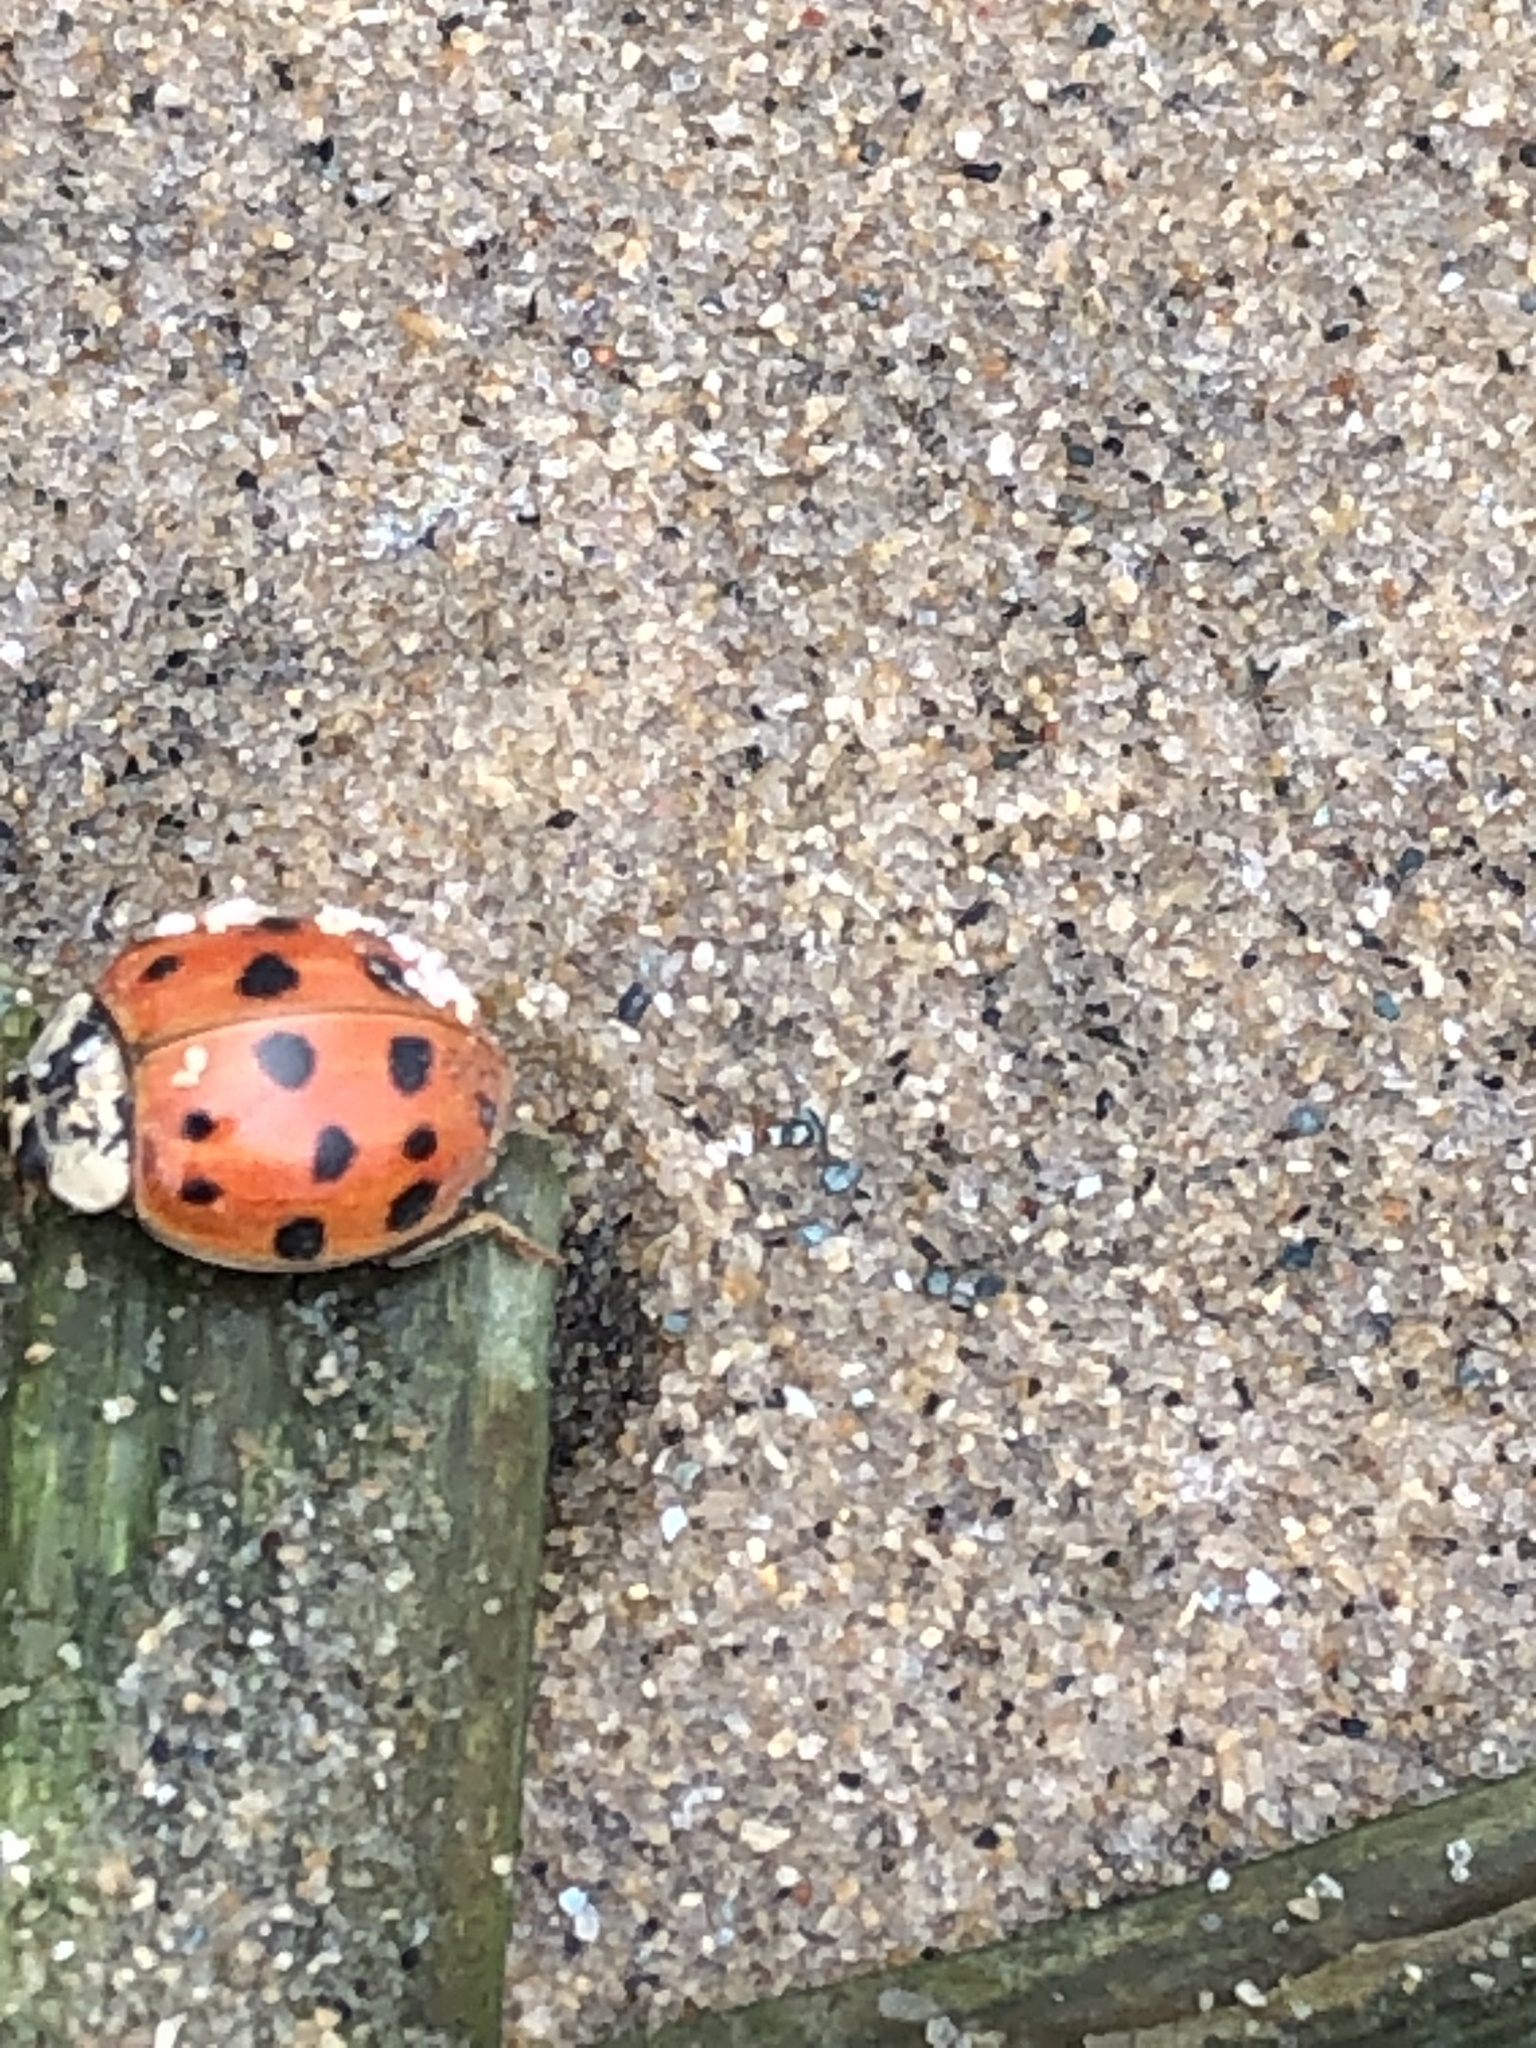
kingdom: Animalia
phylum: Arthropoda
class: Insecta
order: Coleoptera
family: Coccinellidae
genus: Harmonia
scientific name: Harmonia axyridis
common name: Harlequin ladybird
